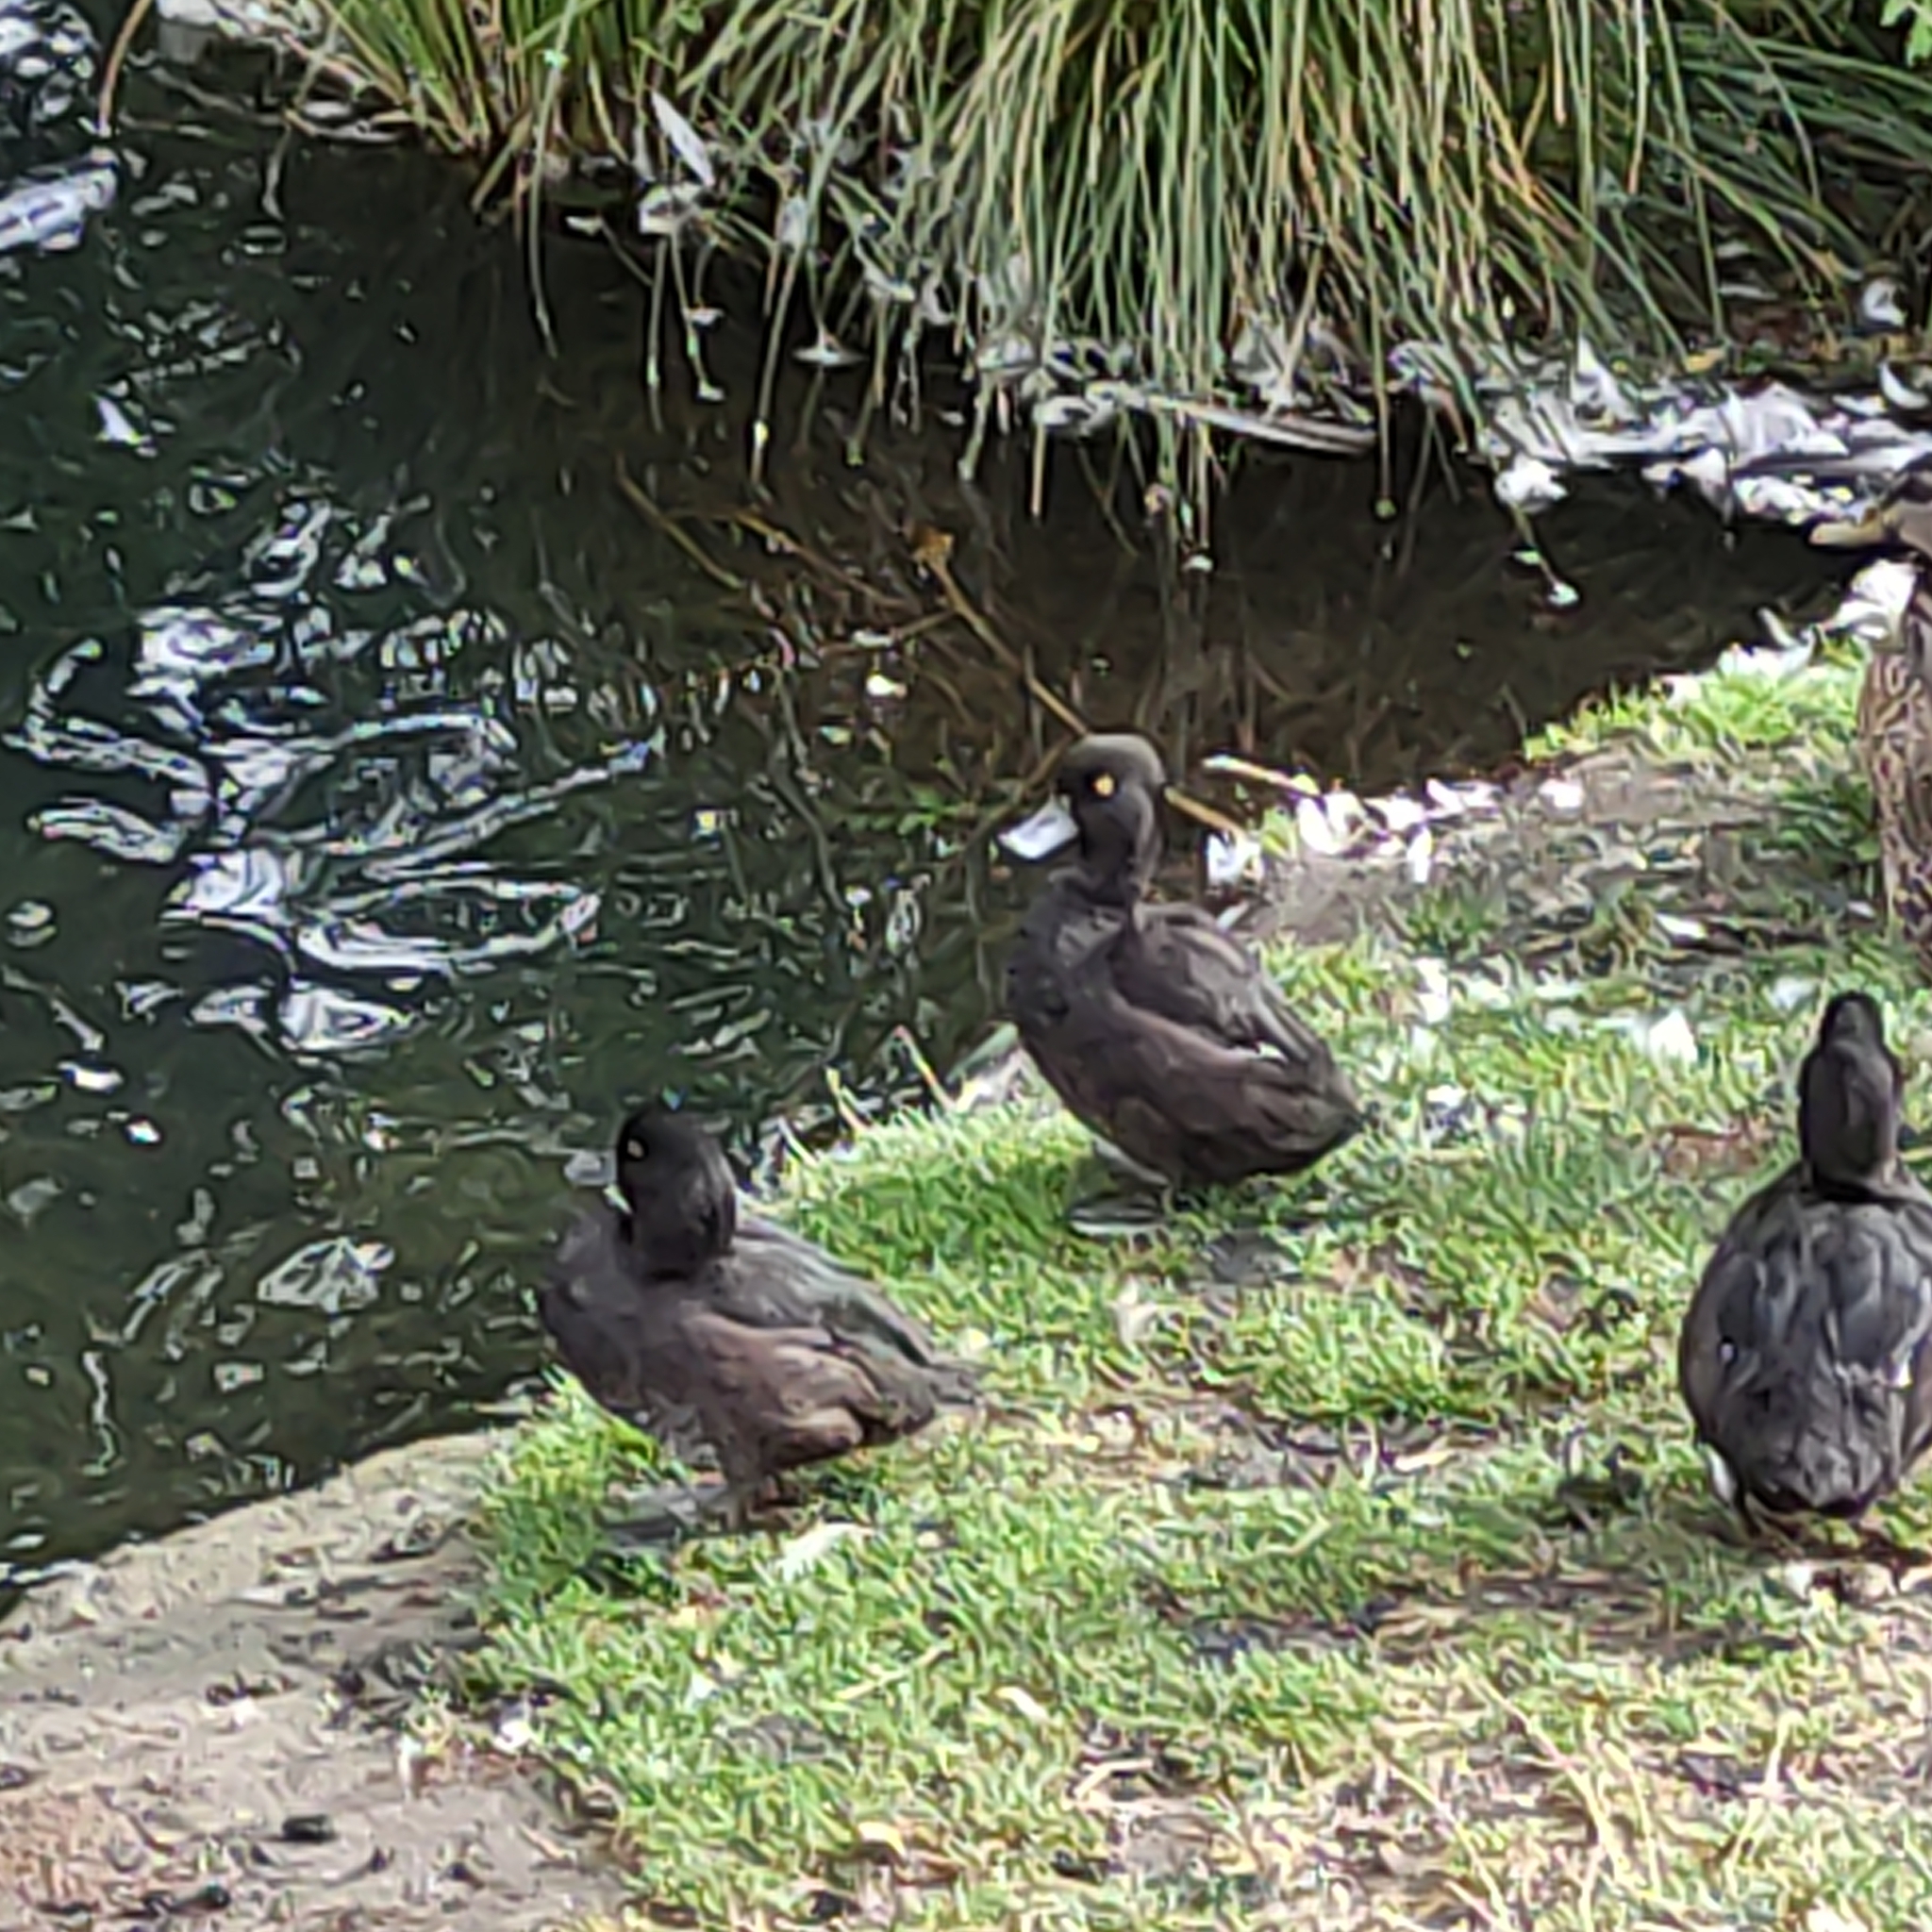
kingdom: Animalia
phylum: Chordata
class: Aves
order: Anseriformes
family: Anatidae
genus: Aythya
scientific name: Aythya novaeseelandiae
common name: New zealand scaup
